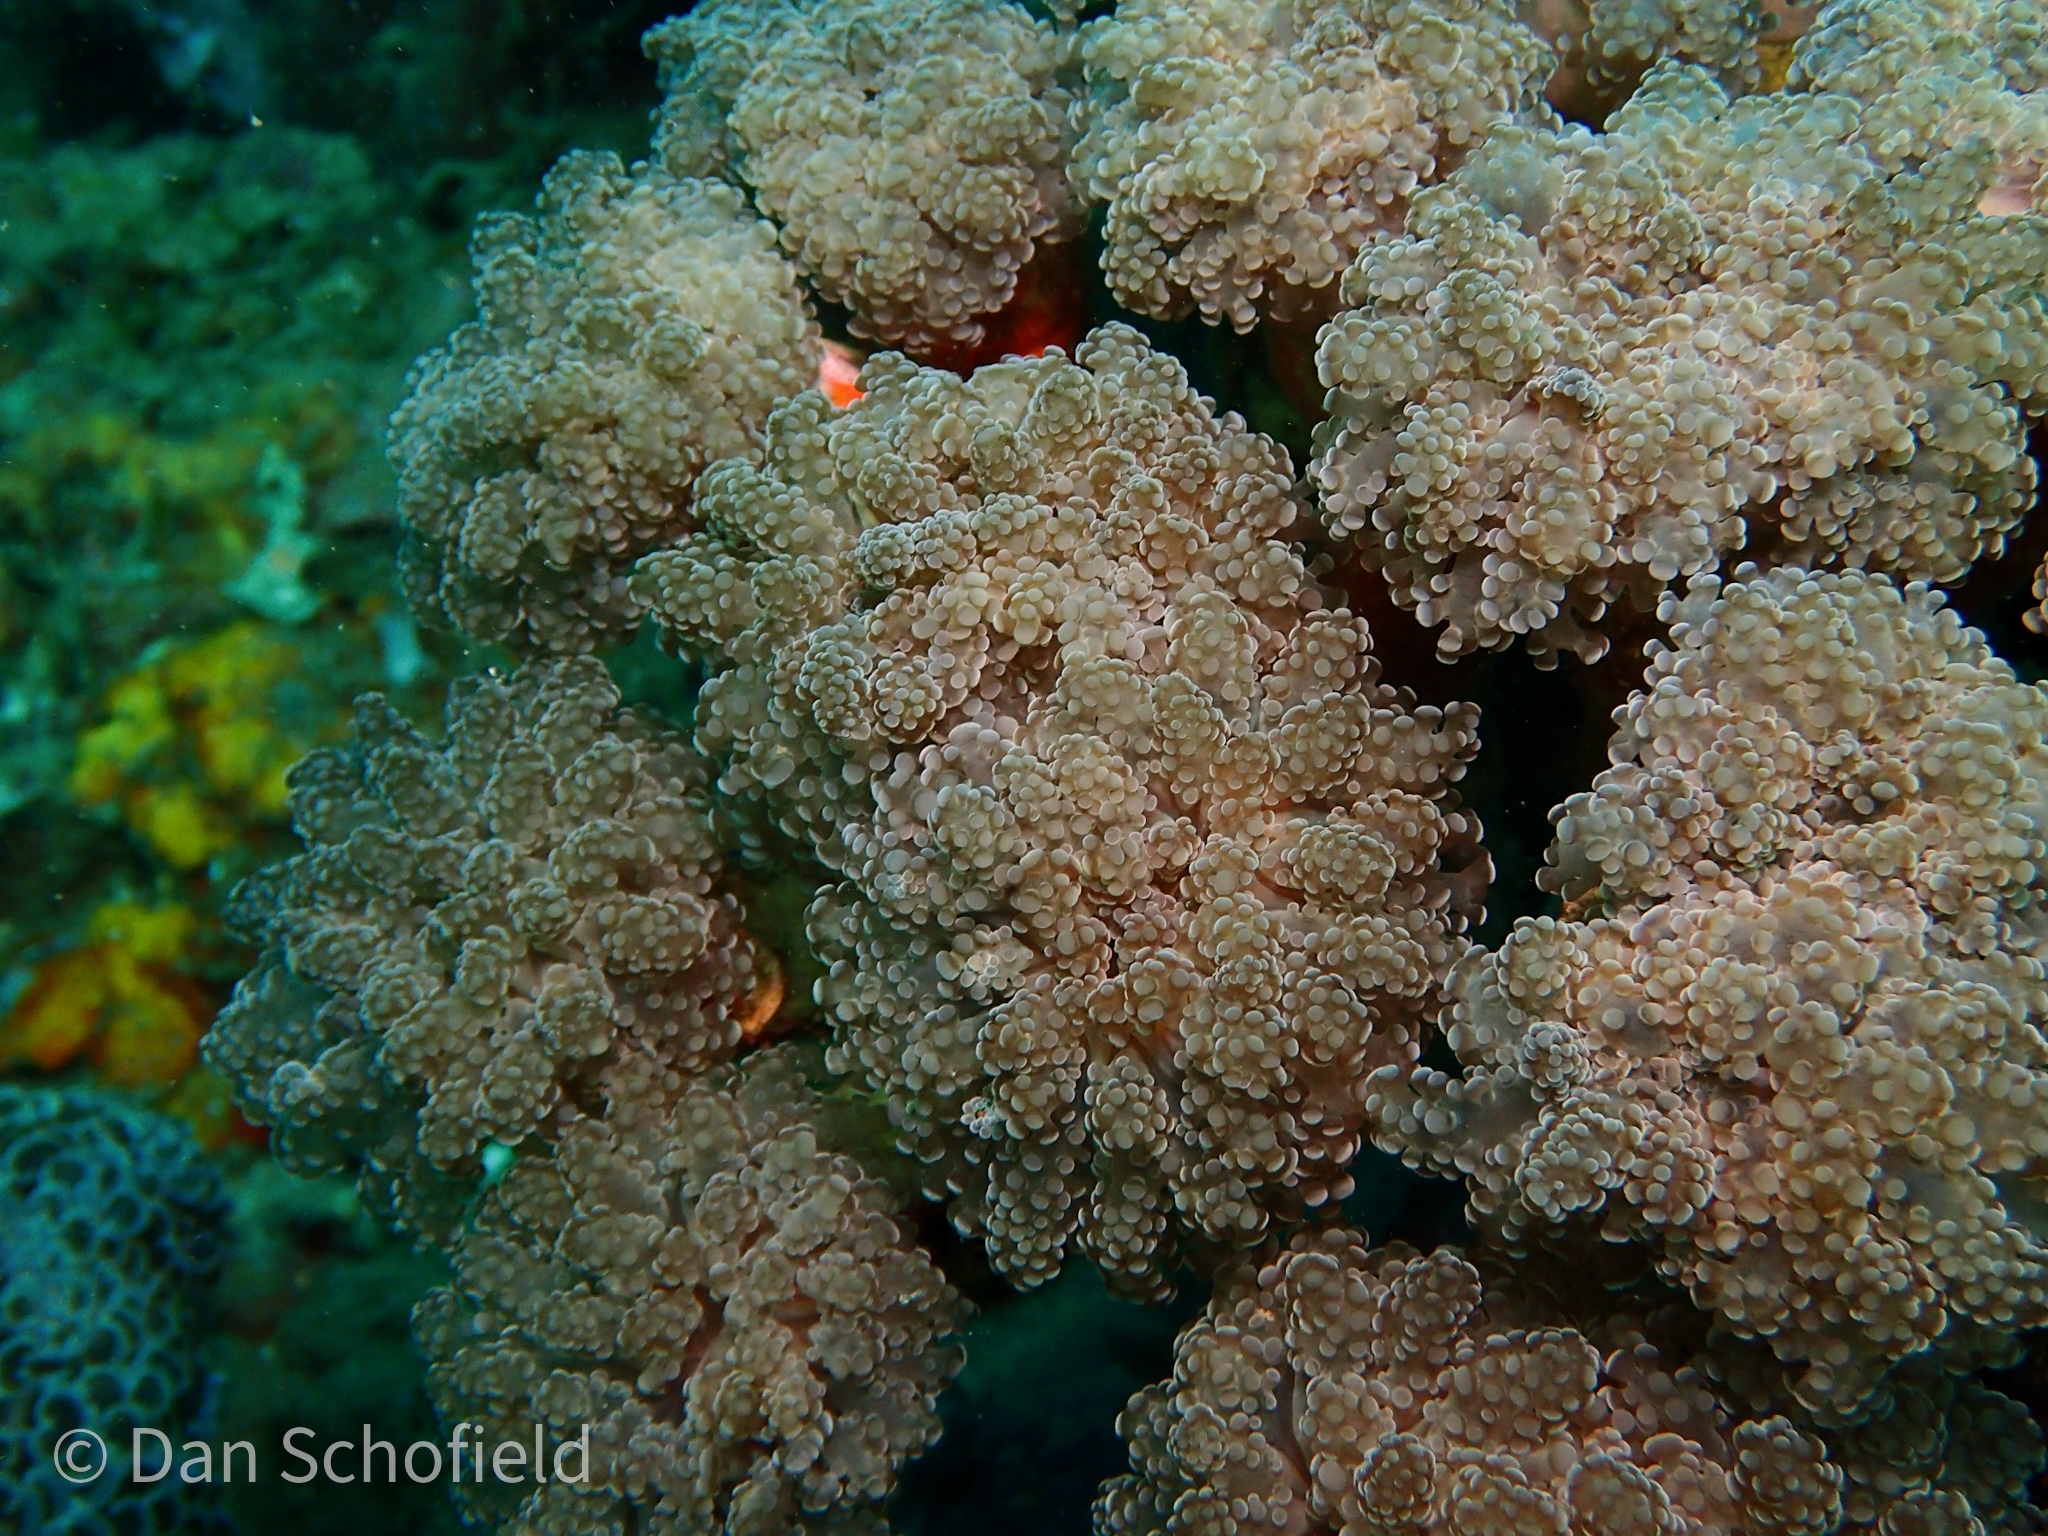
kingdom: Animalia
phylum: Cnidaria
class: Anthozoa
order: Scleractinia
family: Euphylliidae
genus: Fimbriaphyllia
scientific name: Fimbriaphyllia yaeyamaensis
